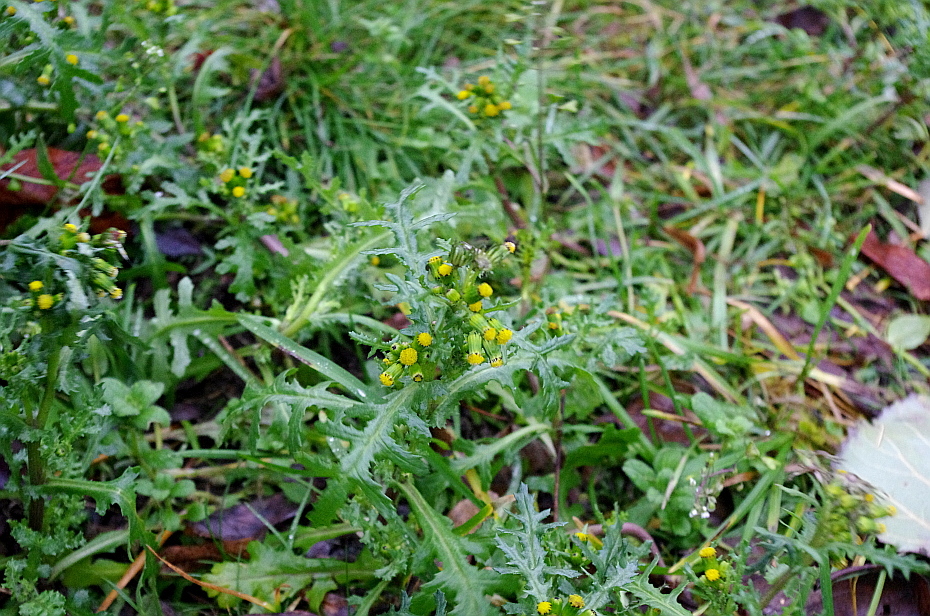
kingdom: Plantae
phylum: Tracheophyta
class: Magnoliopsida
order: Asterales
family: Asteraceae
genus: Senecio
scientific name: Senecio vulgaris
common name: Old-man-in-the-spring
